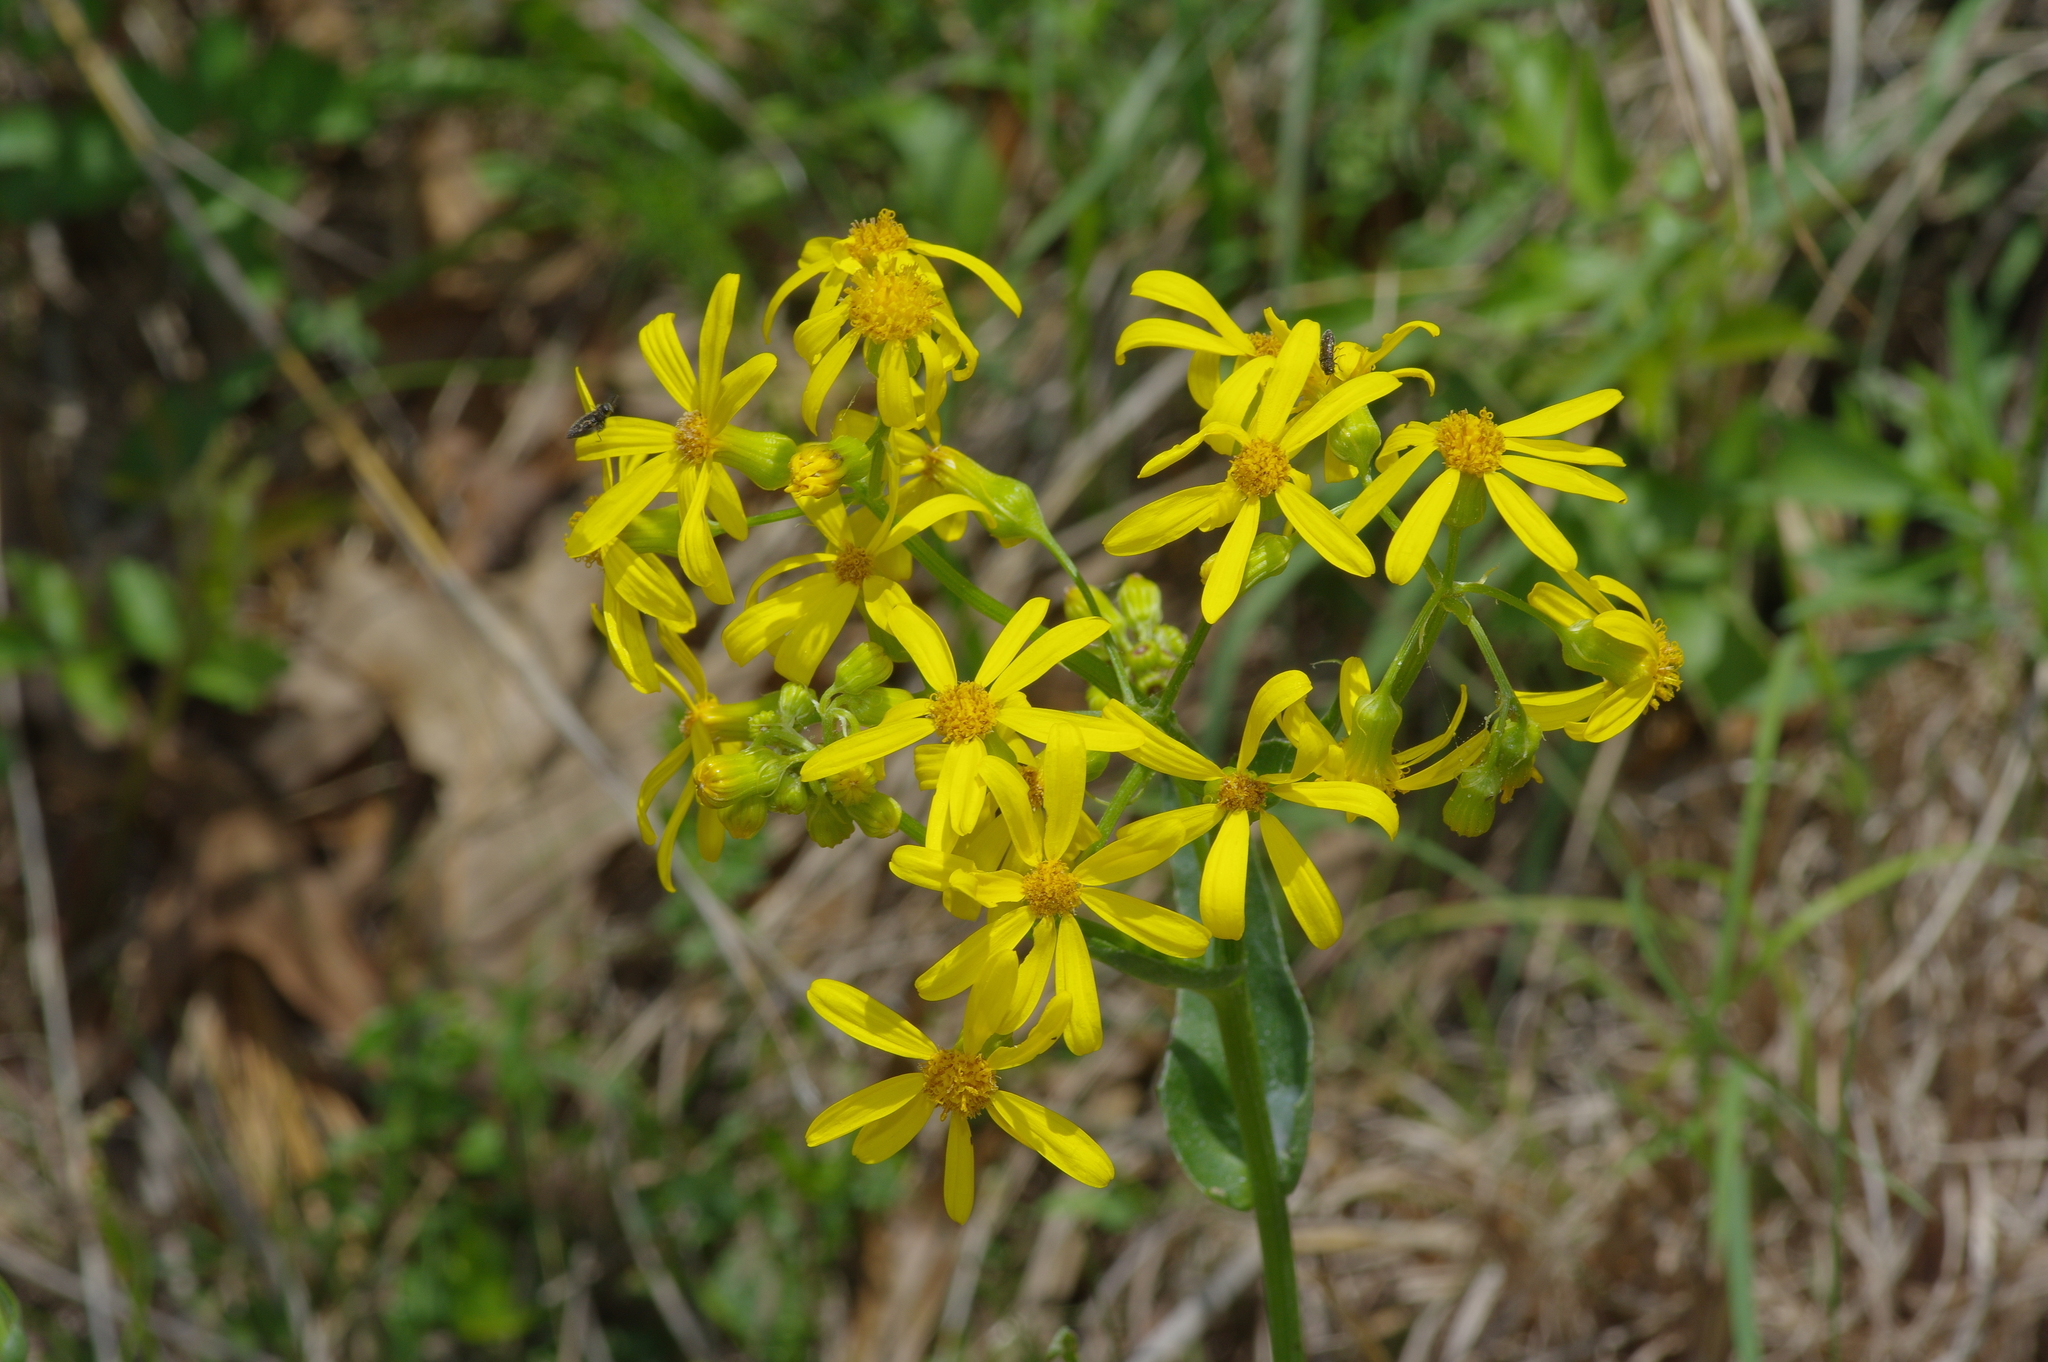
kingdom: Plantae
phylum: Tracheophyta
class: Magnoliopsida
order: Asterales
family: Asteraceae
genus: Senecio
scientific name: Senecio ampullaceus
